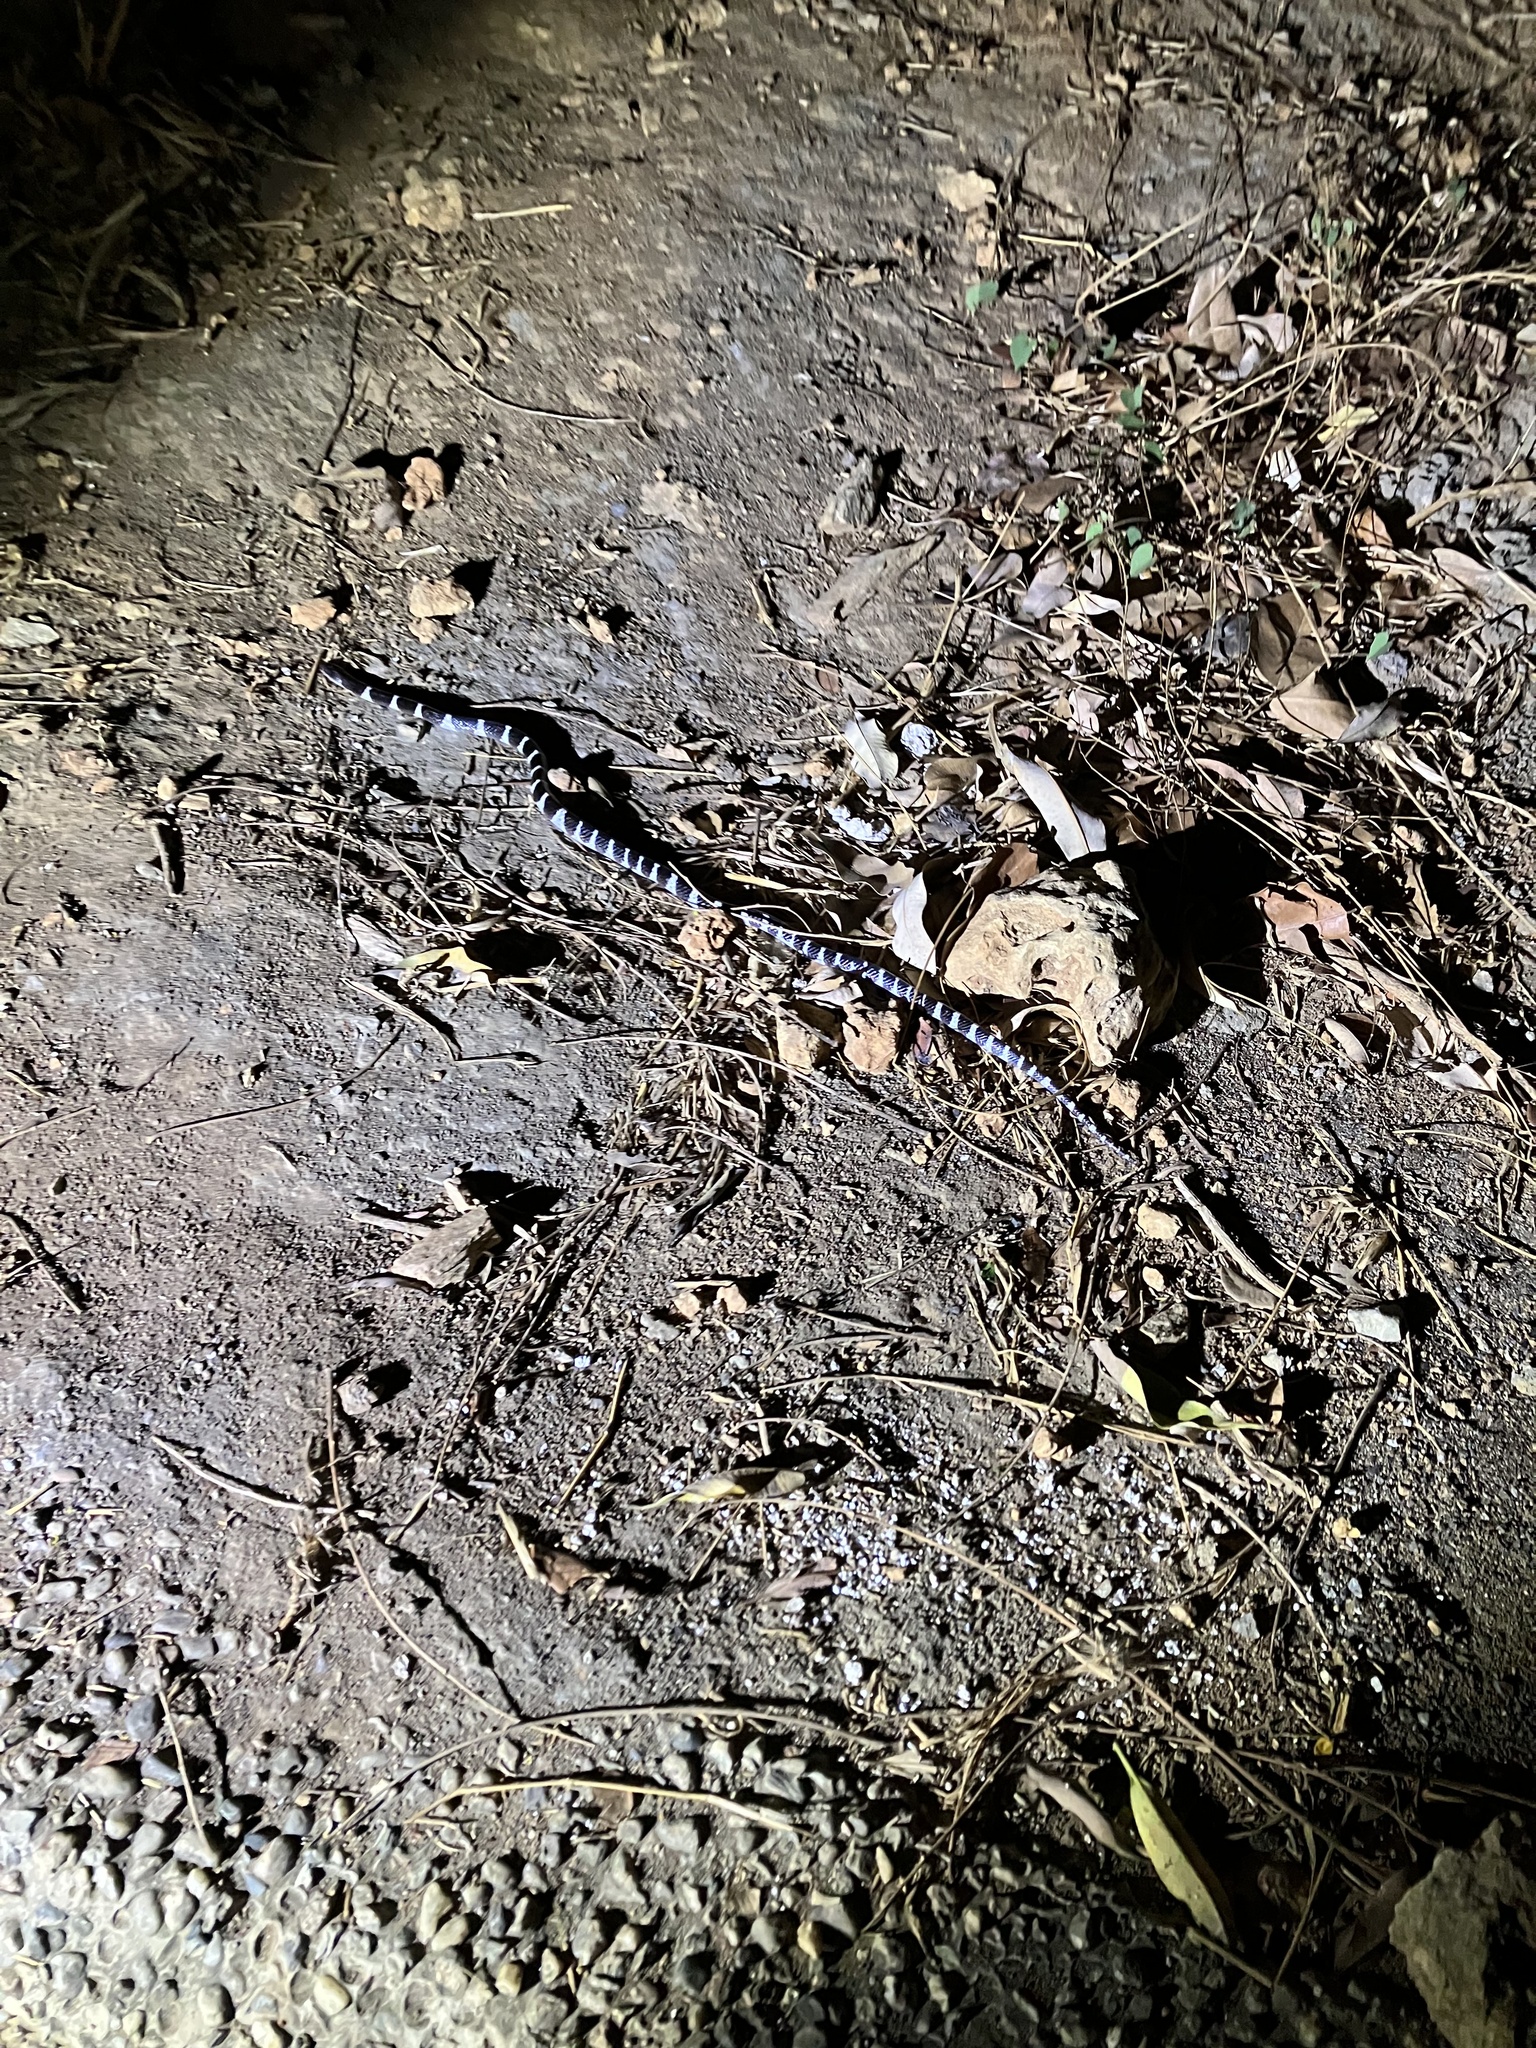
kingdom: Animalia
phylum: Chordata
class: Squamata
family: Elapidae
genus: Bungarus
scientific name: Bungarus multicinctus
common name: Many-banded krait
